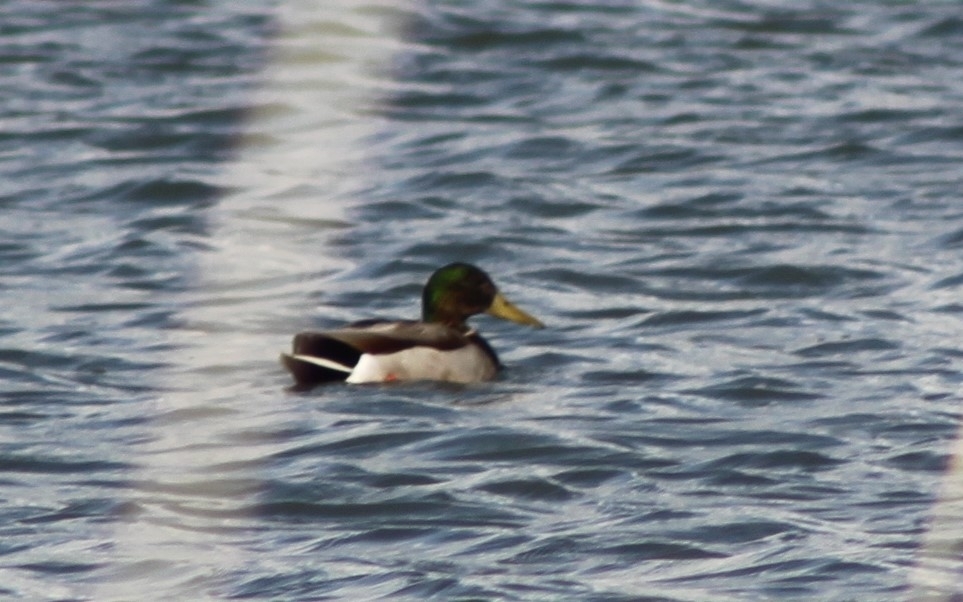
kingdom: Animalia
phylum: Chordata
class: Aves
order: Anseriformes
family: Anatidae
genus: Anas
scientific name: Anas platyrhynchos
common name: Mallard
